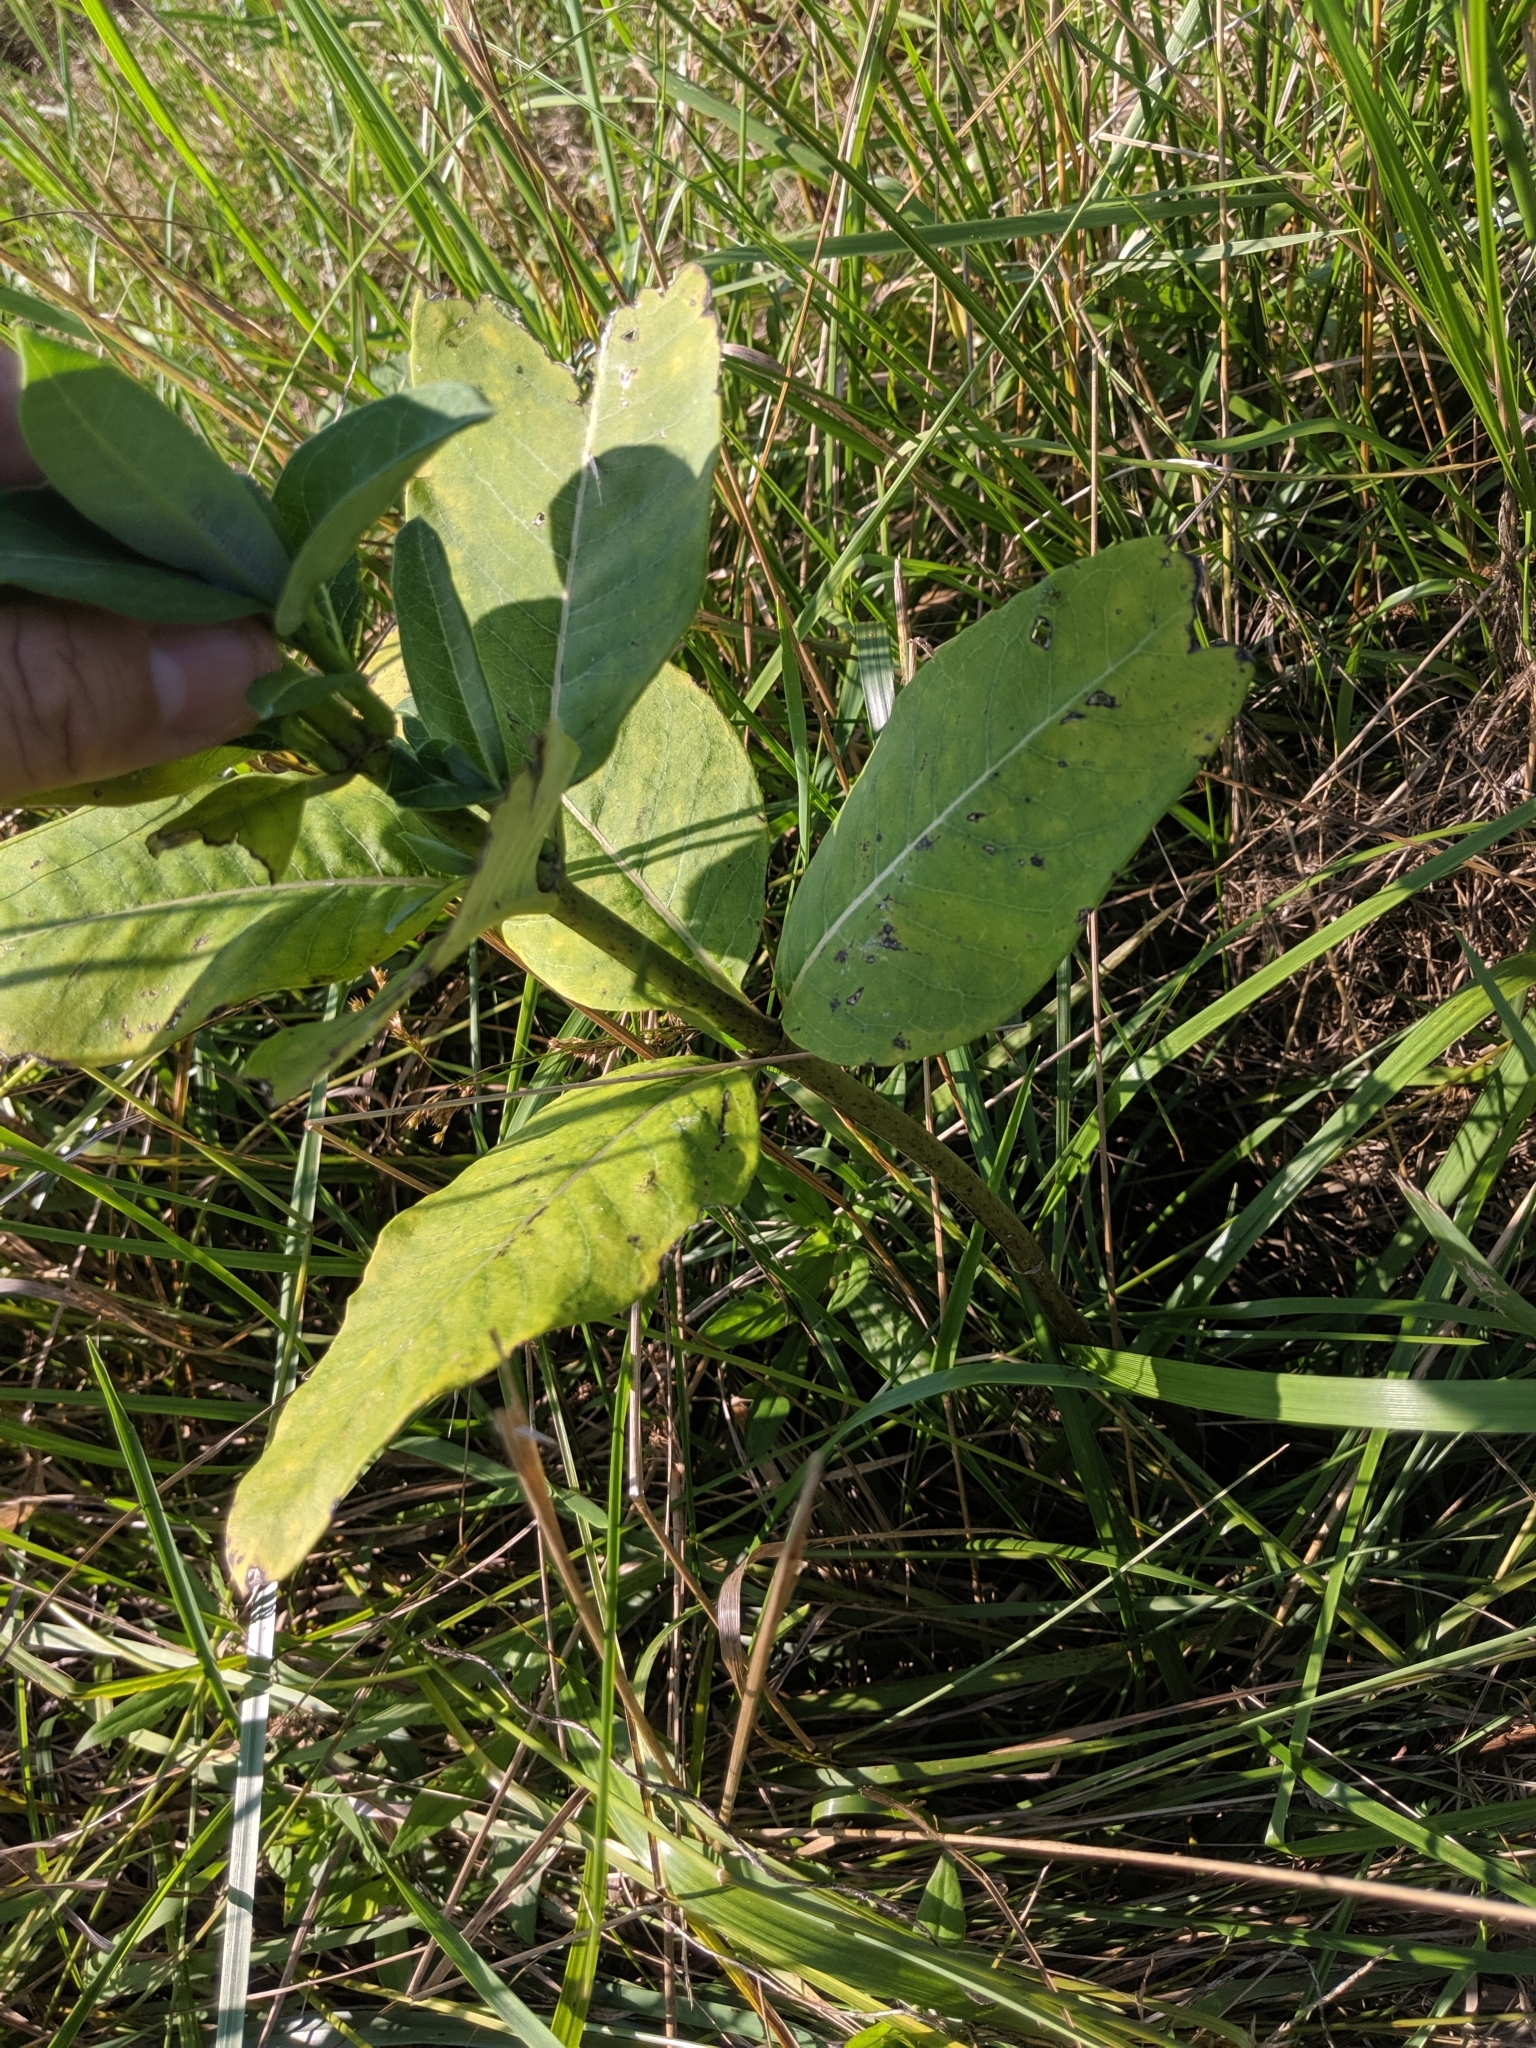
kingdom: Plantae
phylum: Tracheophyta
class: Magnoliopsida
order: Gentianales
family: Apocynaceae
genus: Asclepias
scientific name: Asclepias syriaca
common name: Common milkweed
